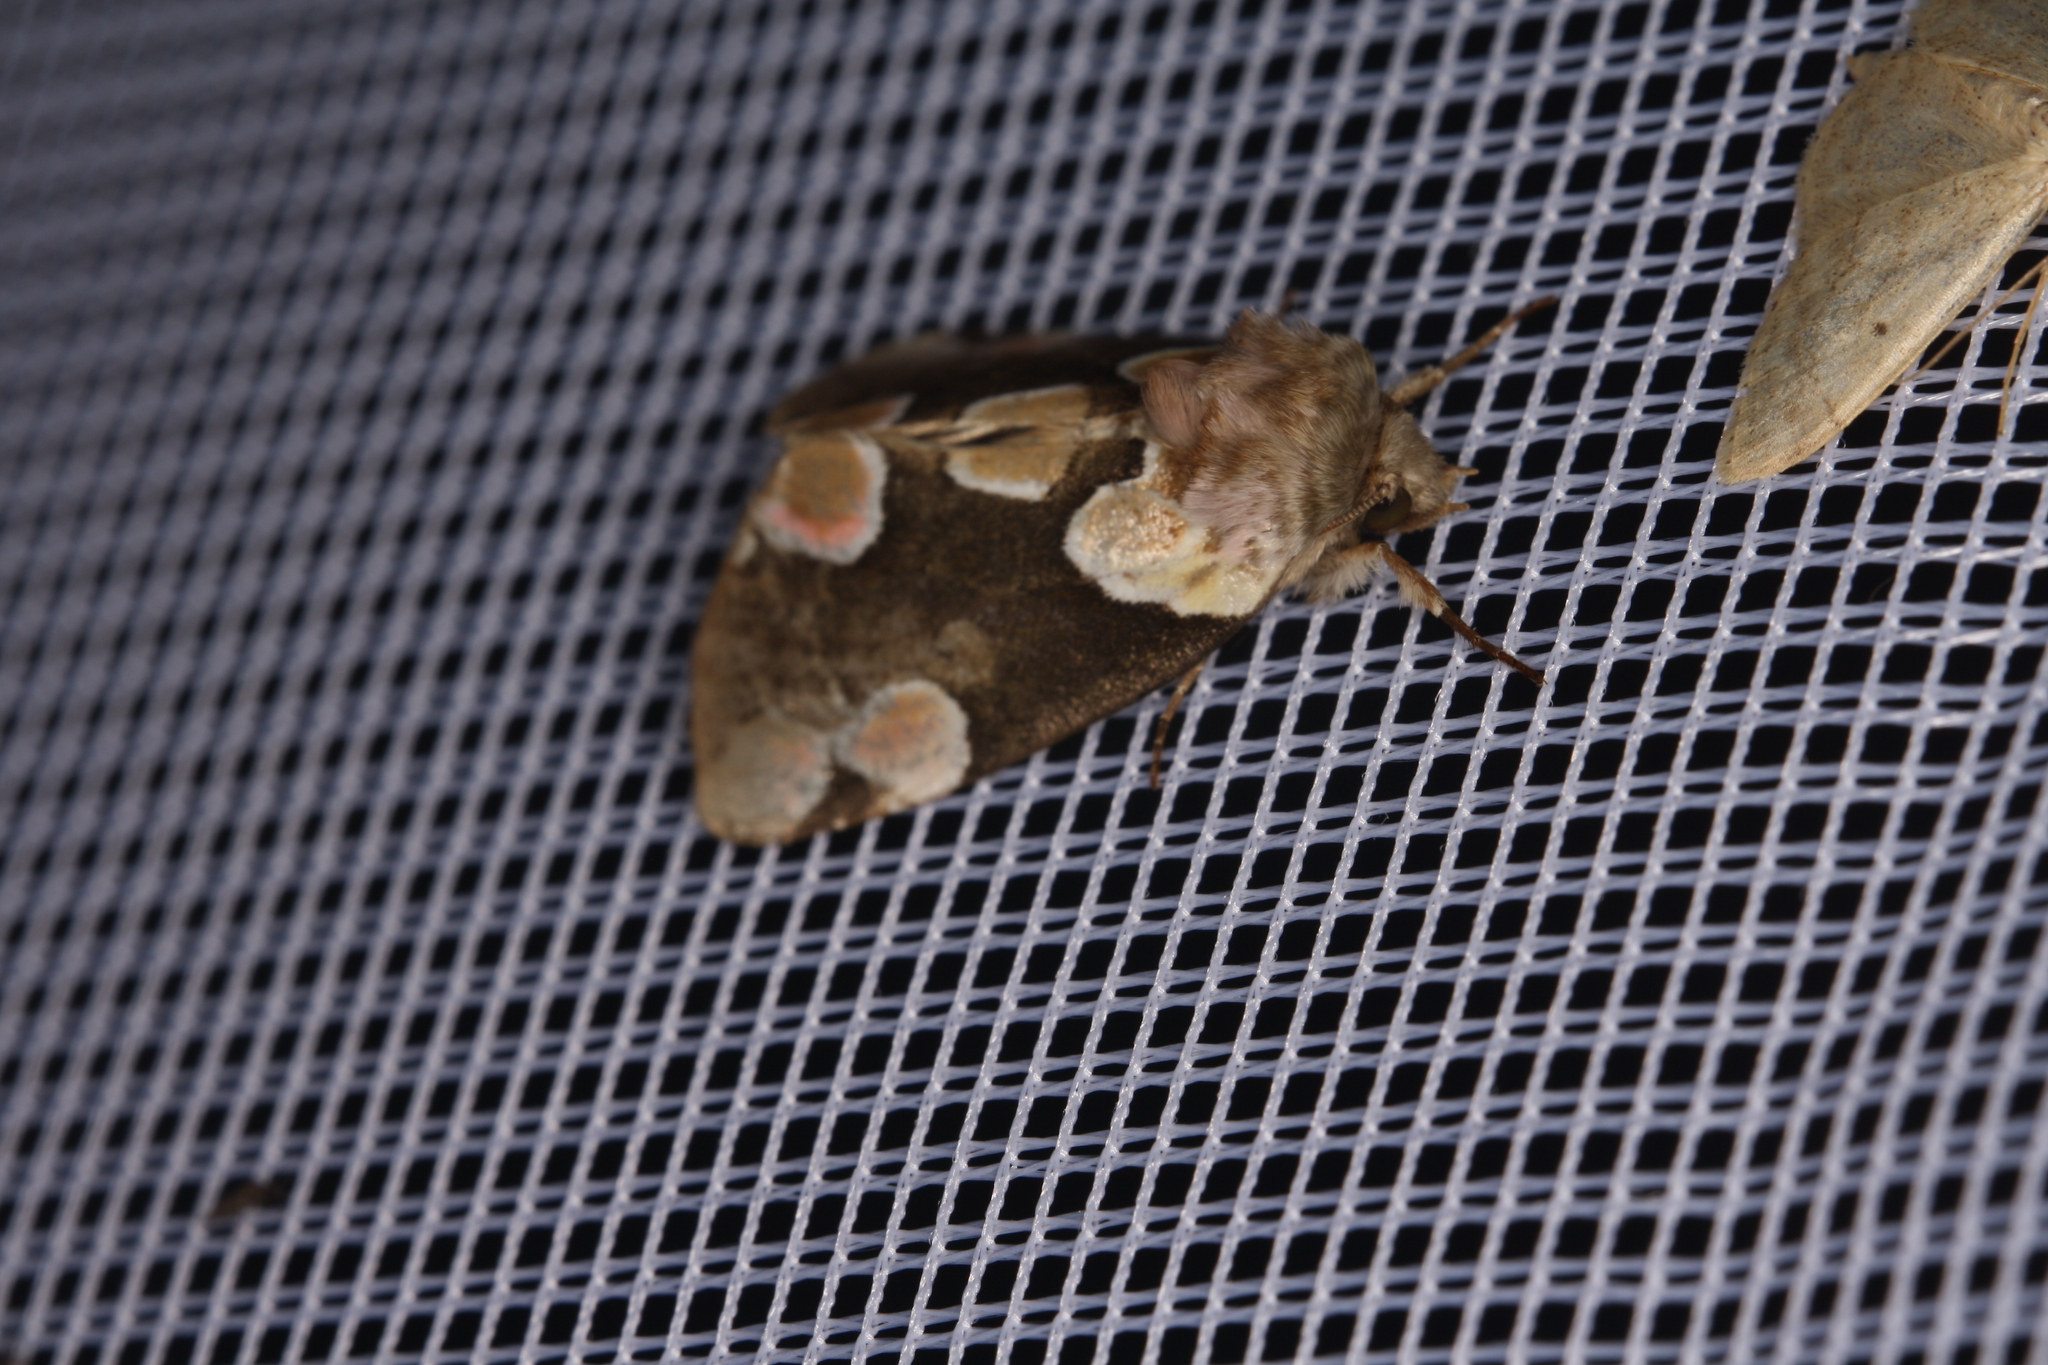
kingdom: Animalia
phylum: Arthropoda
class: Insecta
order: Lepidoptera
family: Drepanidae
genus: Thyatira
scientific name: Thyatira batis
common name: Peach blossom
